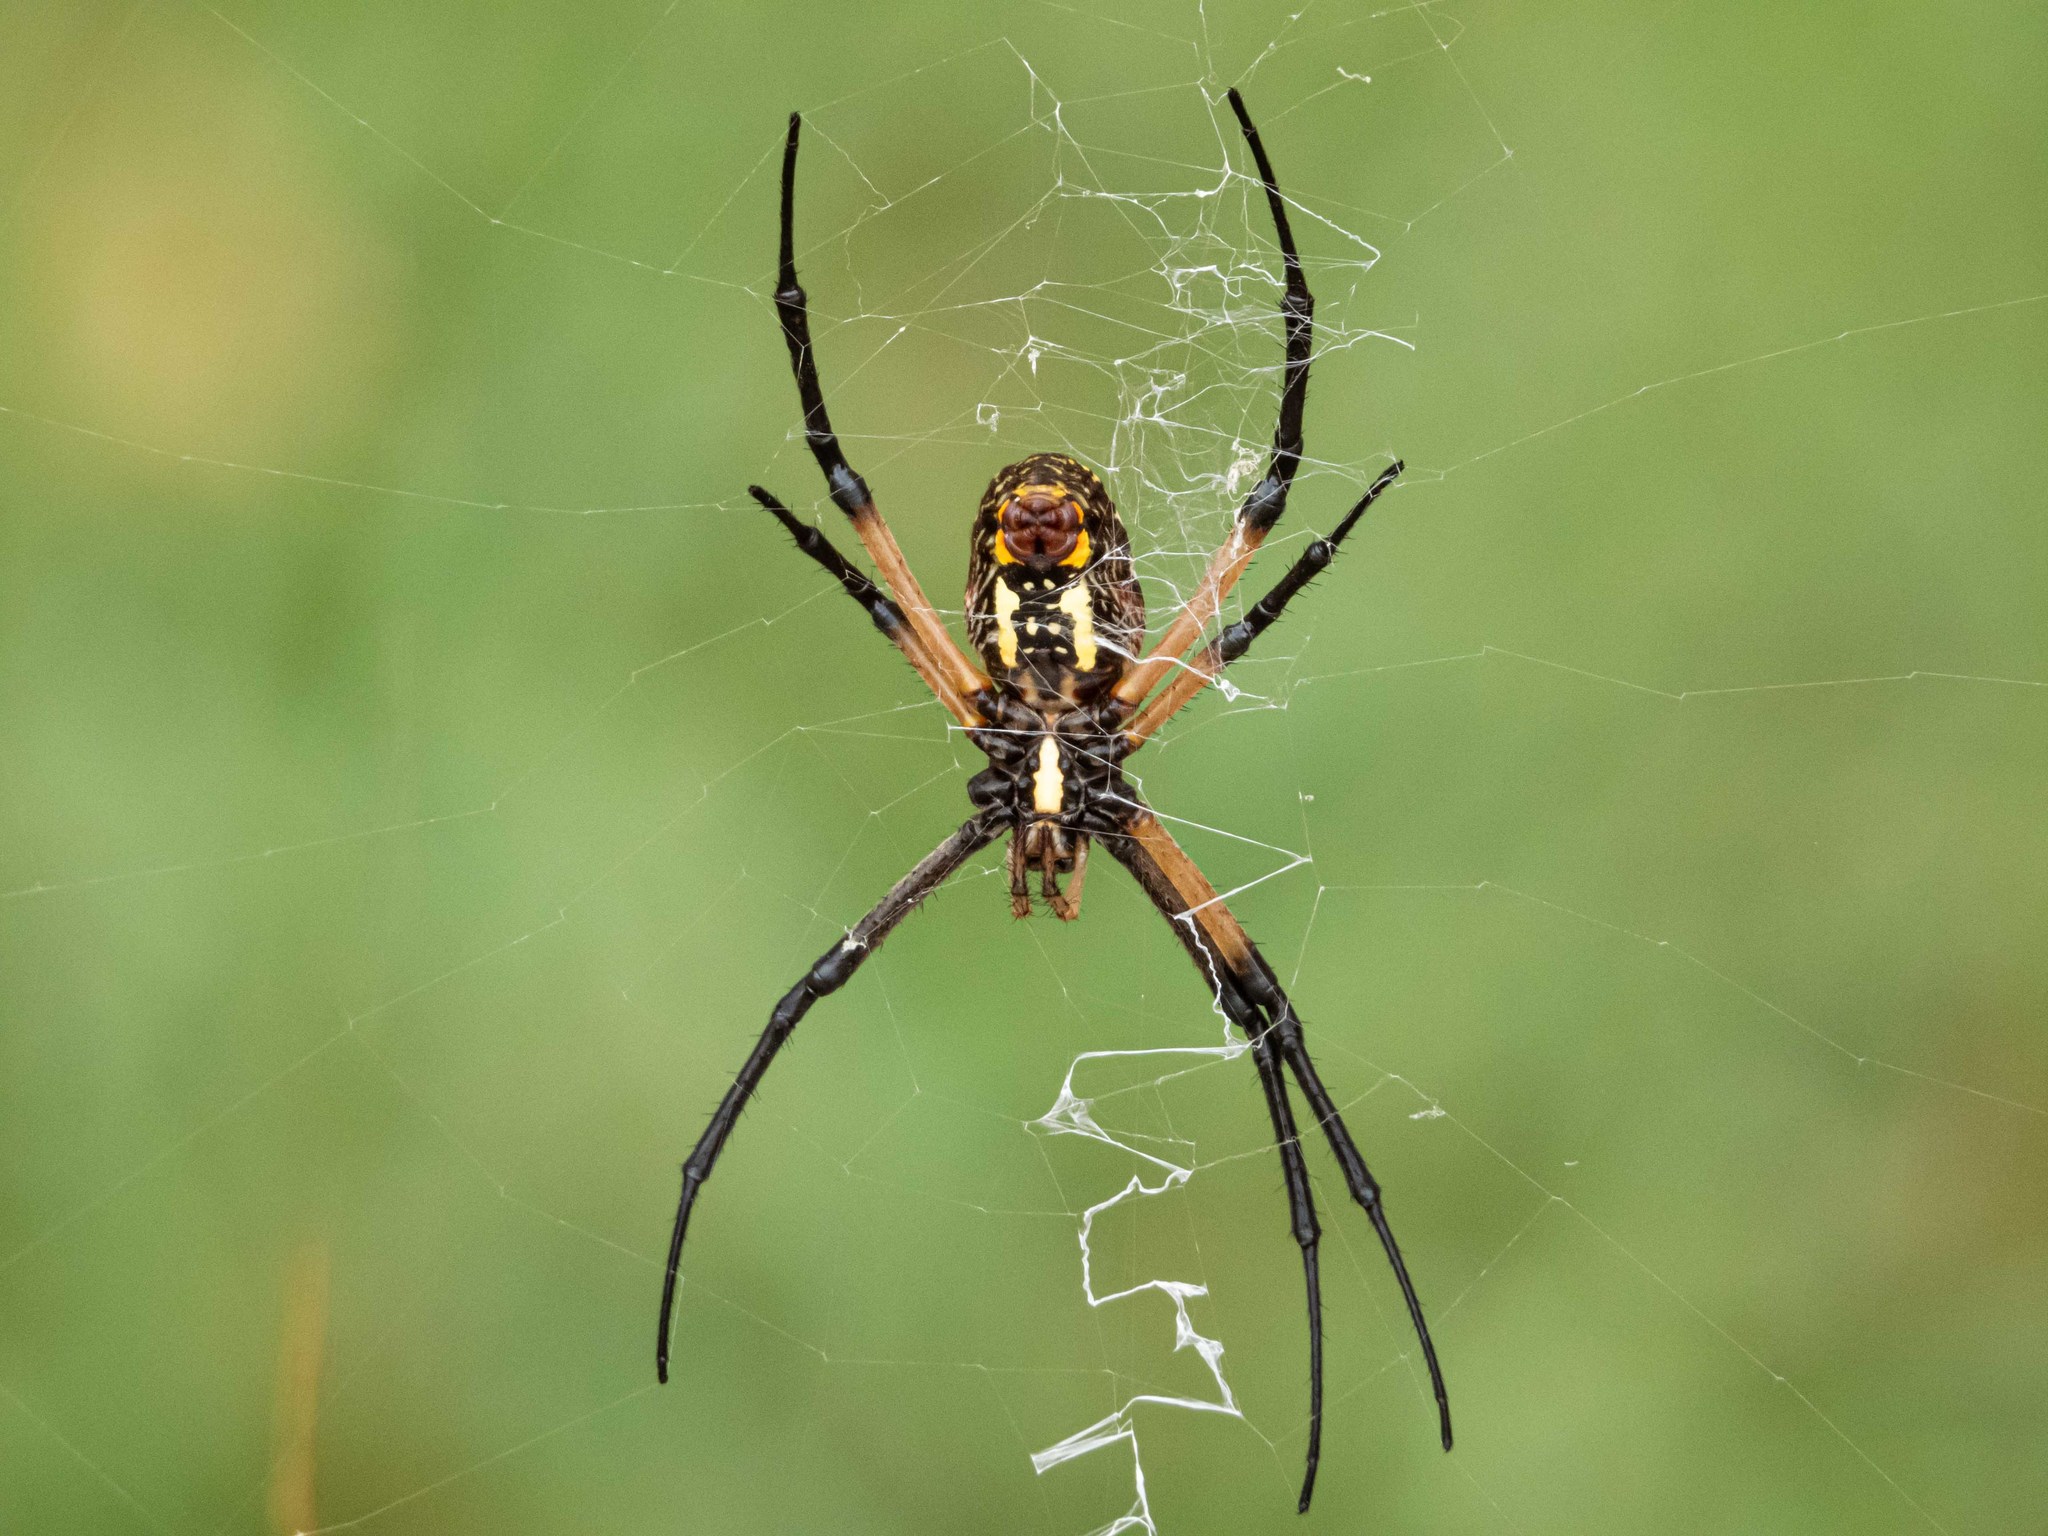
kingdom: Animalia
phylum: Arthropoda
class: Arachnida
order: Araneae
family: Araneidae
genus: Argiope
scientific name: Argiope aurantia
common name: Orb weavers
